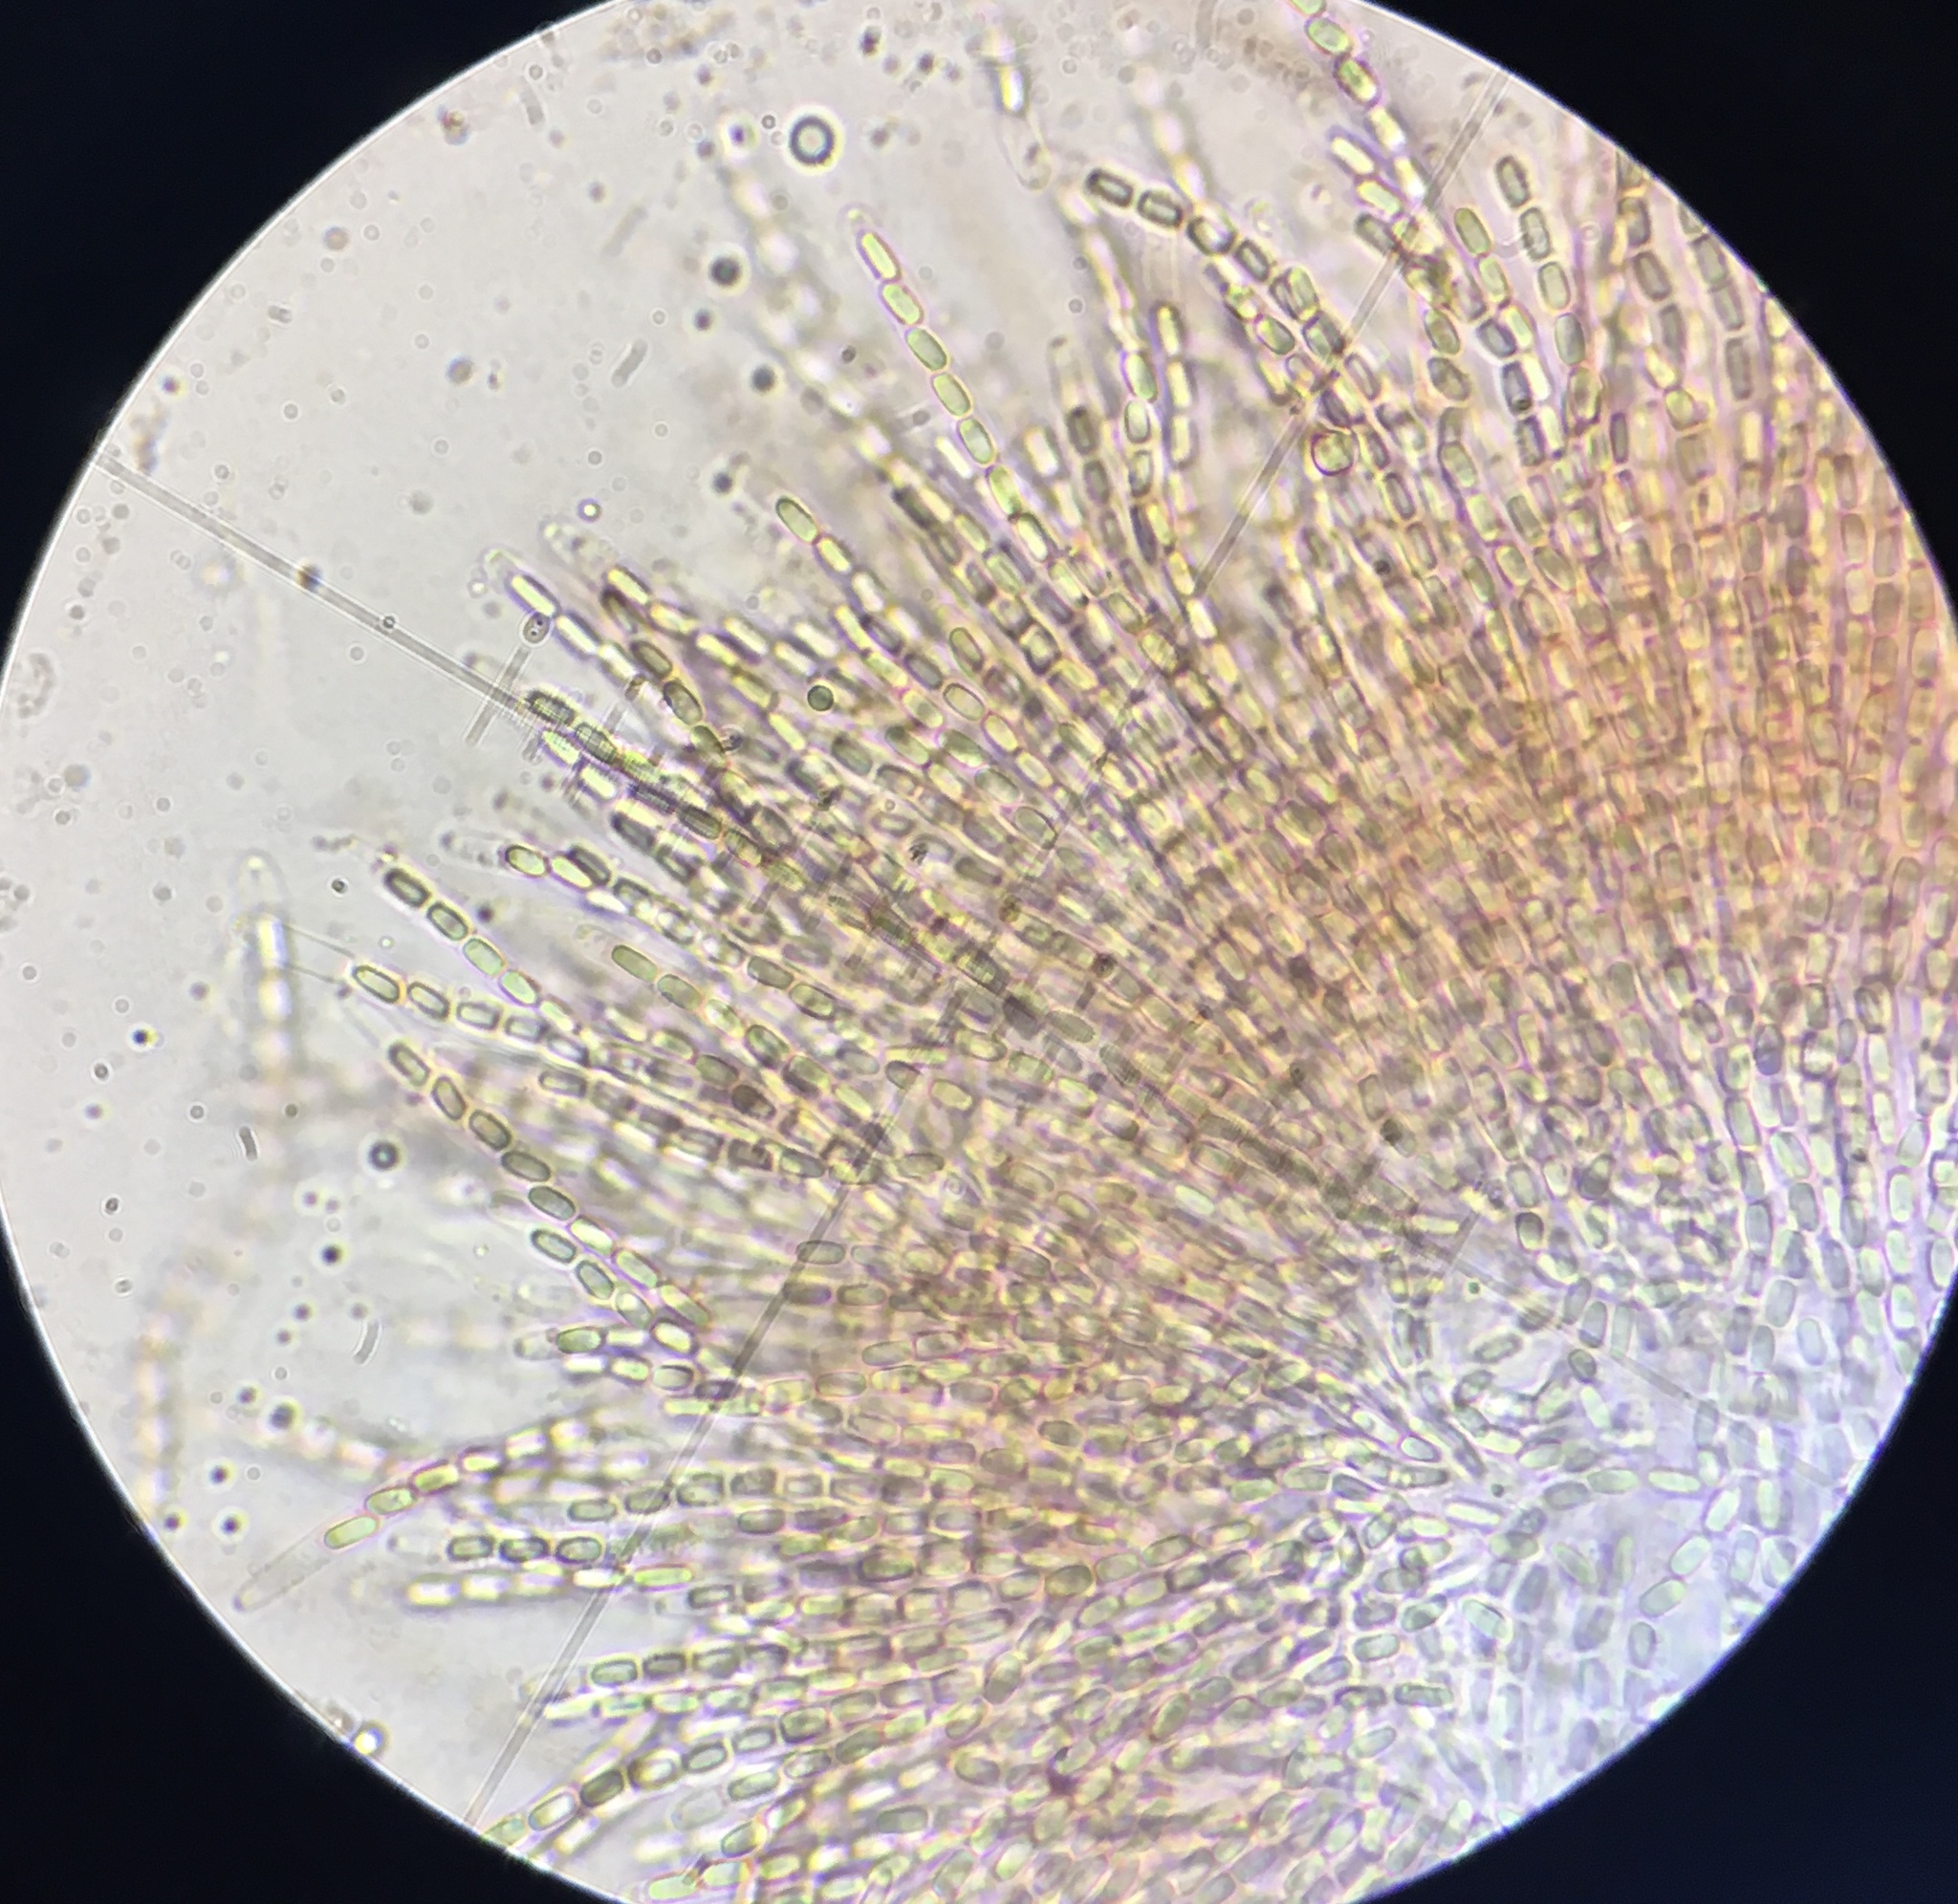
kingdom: Fungi
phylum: Ascomycota
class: Sordariomycetes
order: Phomatosporales
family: Phomatosporaceae
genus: Phomatospora
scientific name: Phomatospora coprophila
